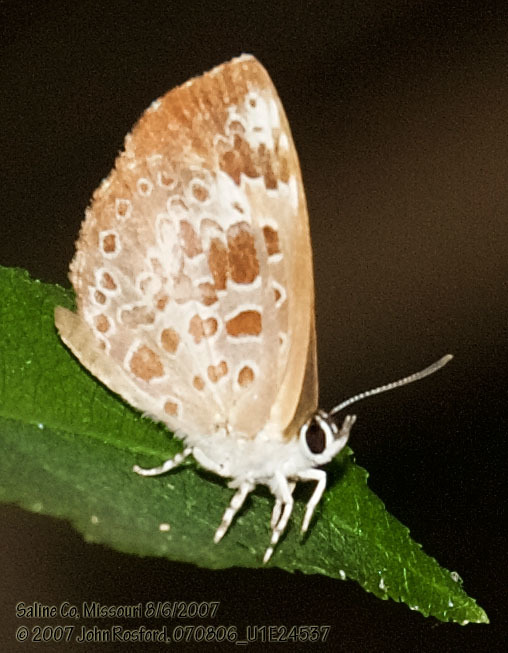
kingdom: Animalia
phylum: Arthropoda
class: Insecta
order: Lepidoptera
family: Lycaenidae
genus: Feniseca
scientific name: Feniseca tarquinius
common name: Harvester
